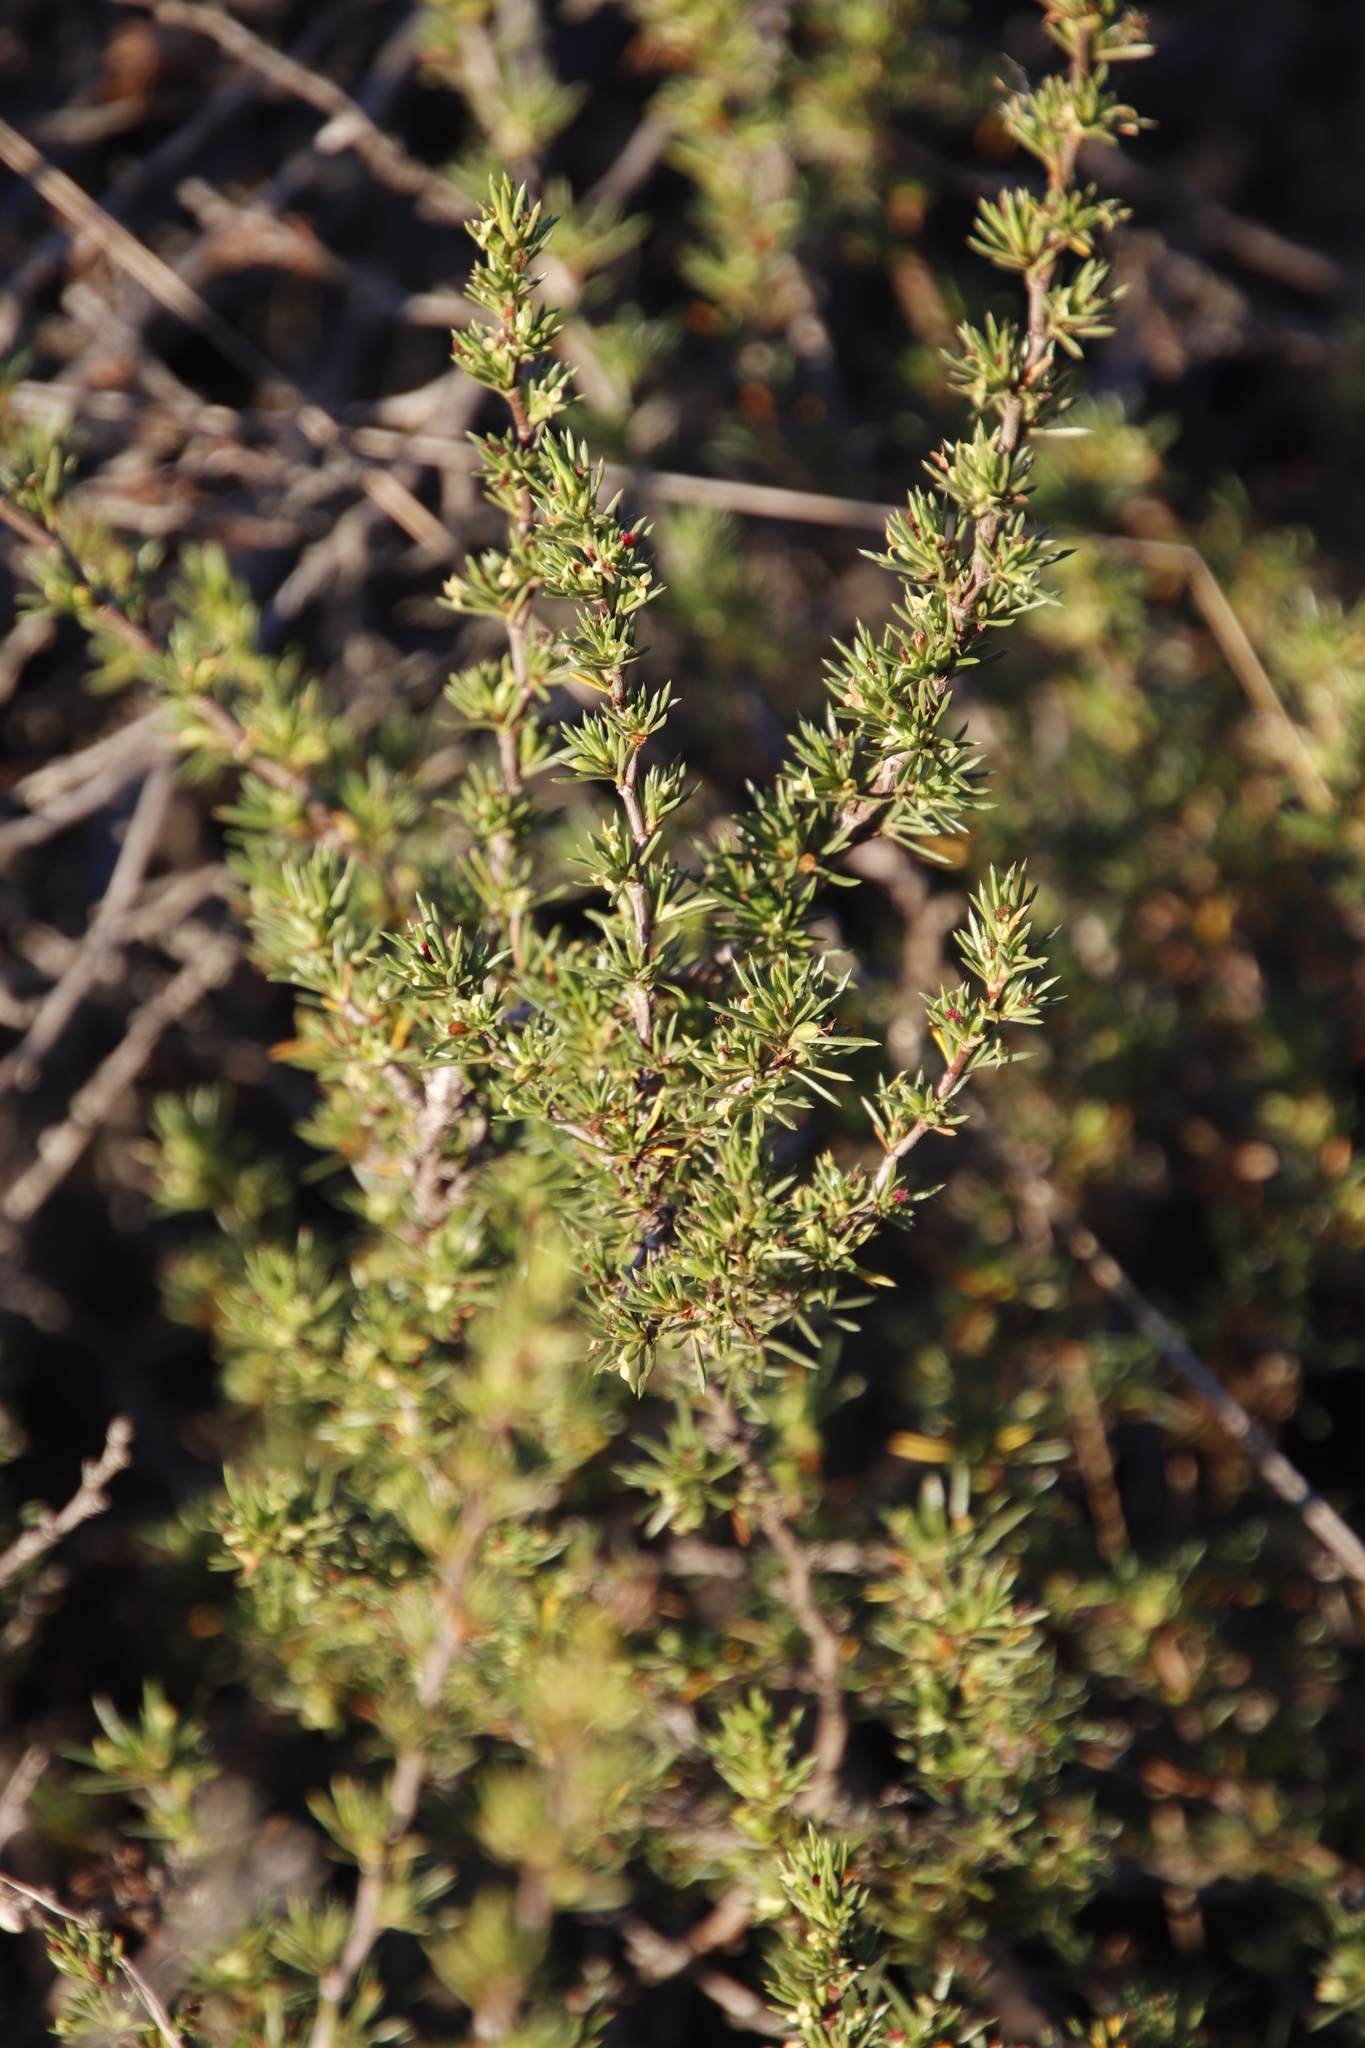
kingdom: Plantae
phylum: Tracheophyta
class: Magnoliopsida
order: Rosales
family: Rosaceae
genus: Cliffortia
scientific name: Cliffortia juniperina
